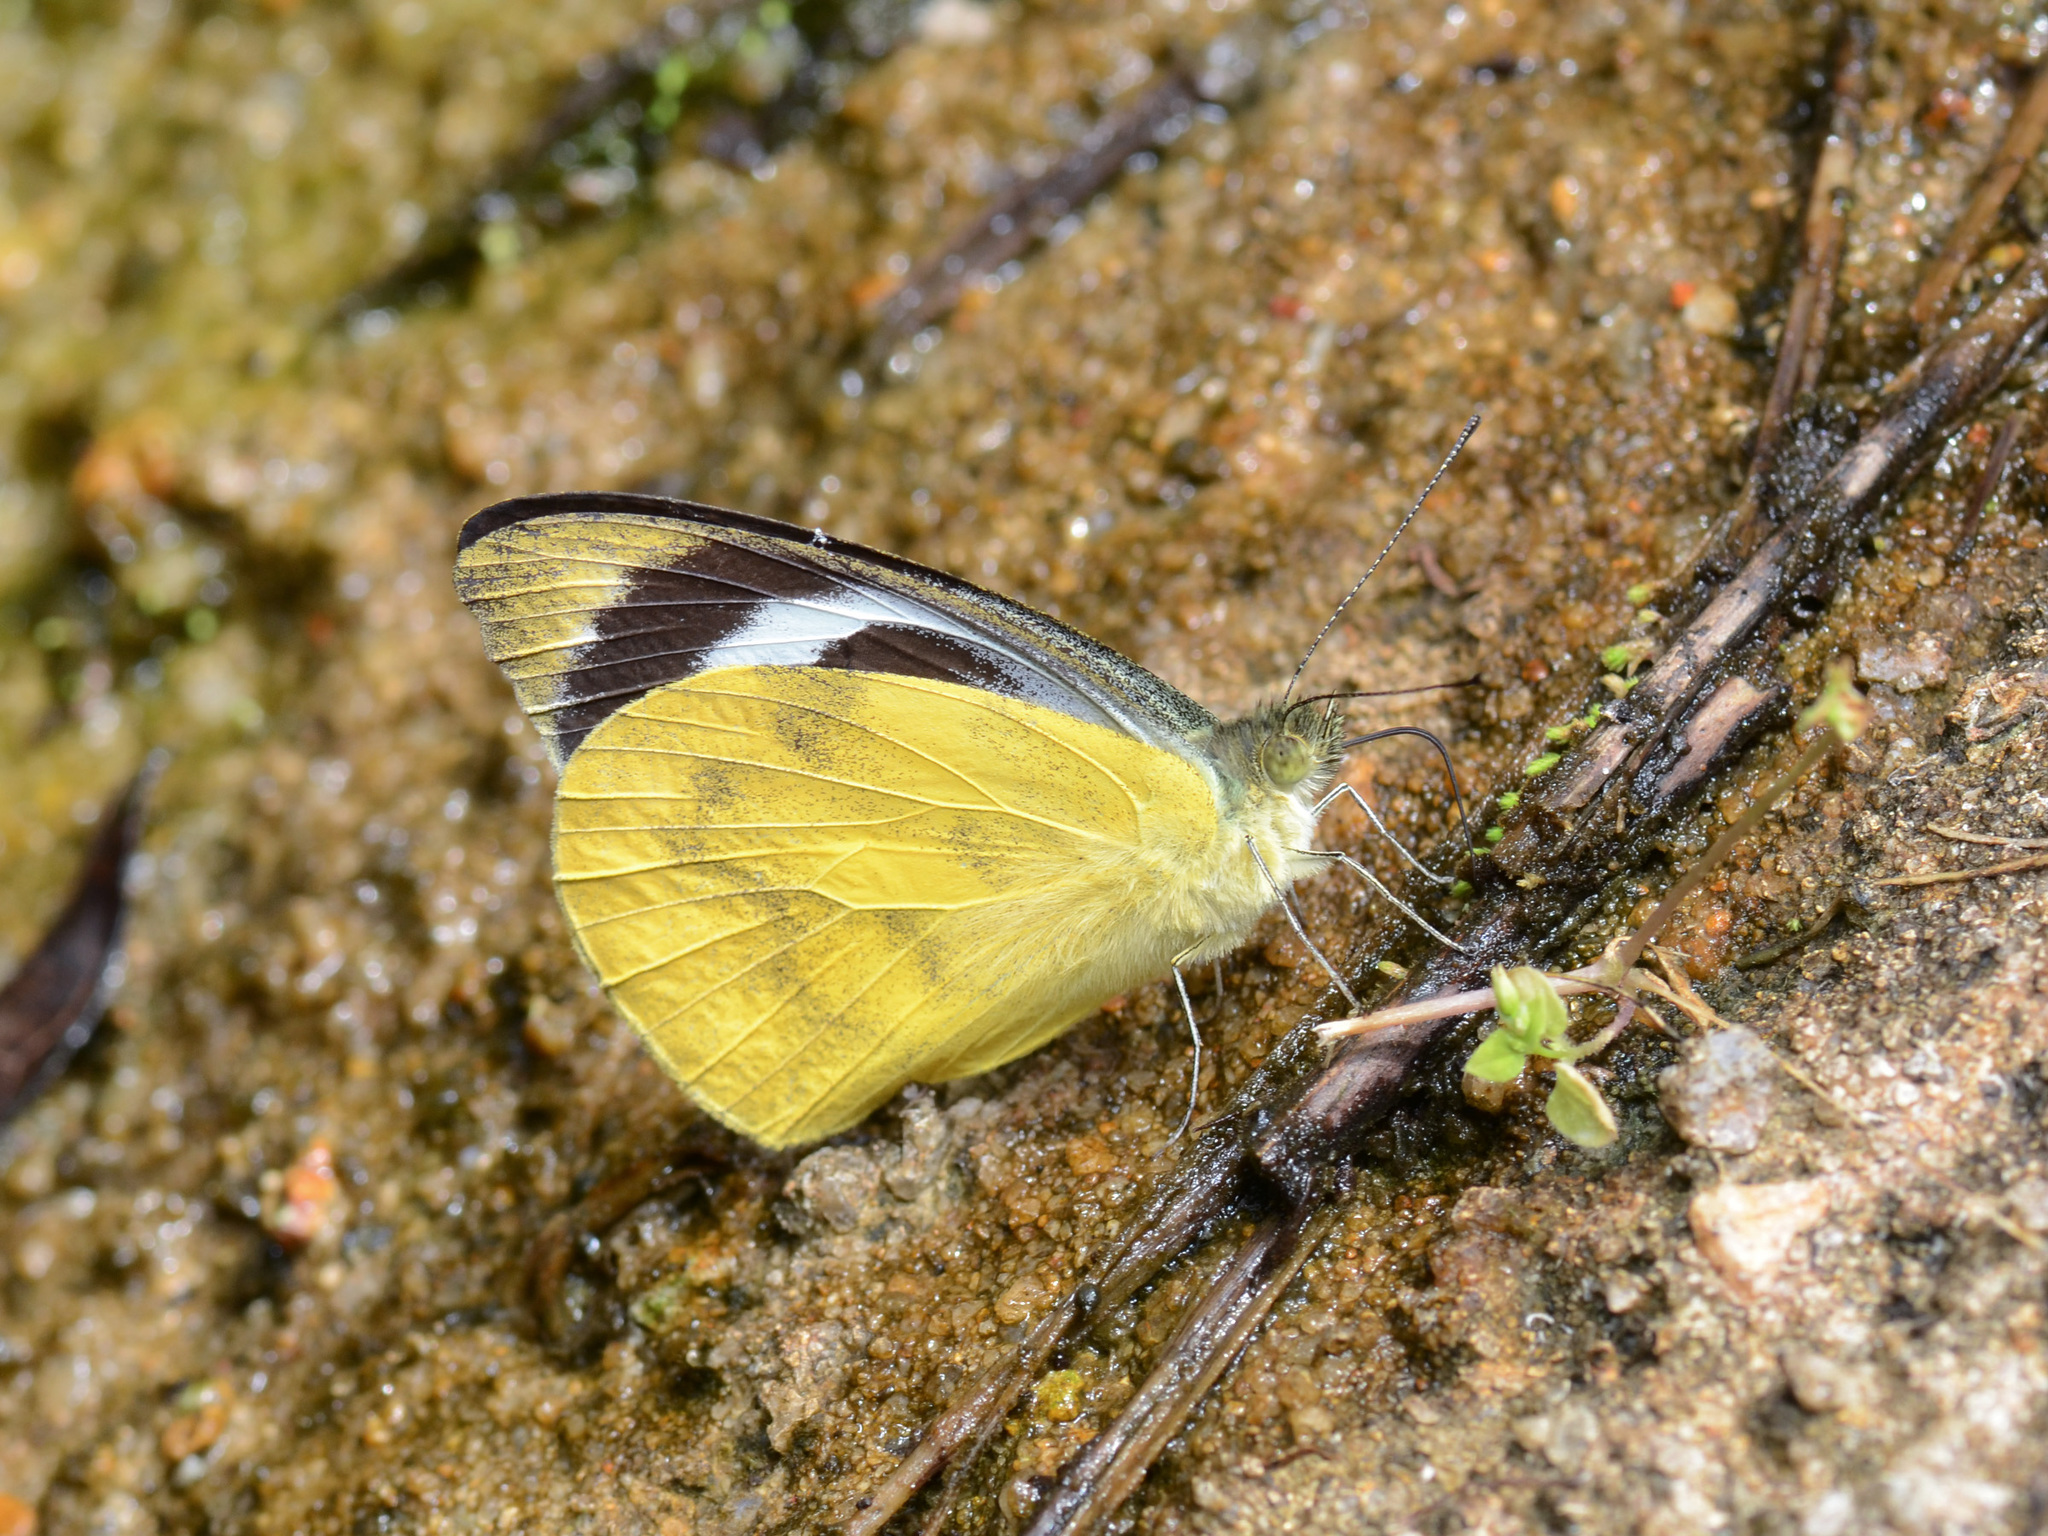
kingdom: Animalia
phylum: Arthropoda
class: Insecta
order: Lepidoptera
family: Pieridae
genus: Appias
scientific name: Appias pandione
